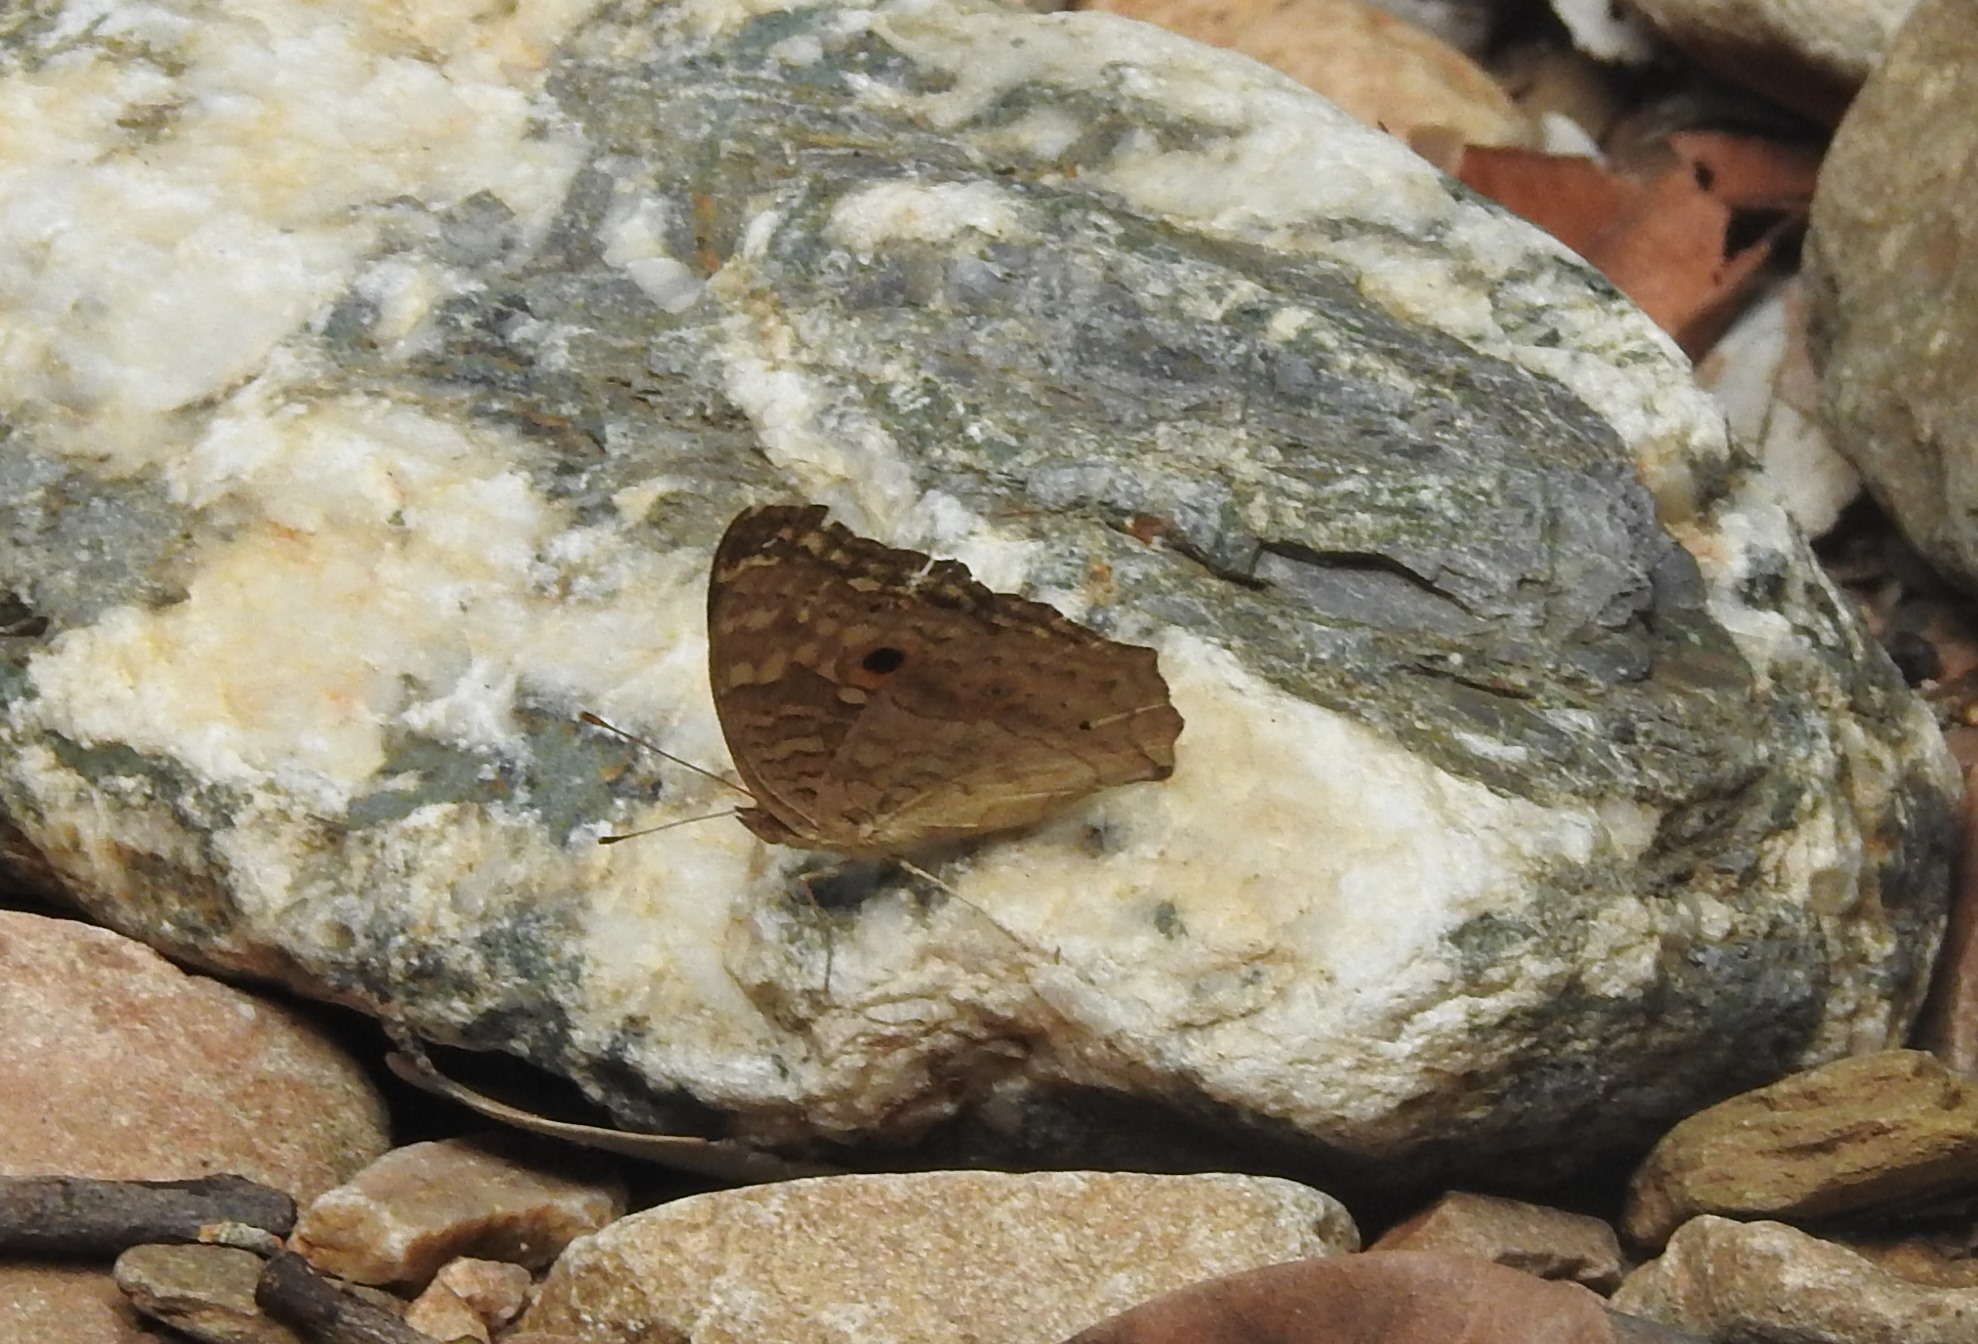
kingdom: Animalia
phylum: Arthropoda
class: Insecta
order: Lepidoptera
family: Nymphalidae
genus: Junonia
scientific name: Junonia lemonias
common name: Lemon pansy
